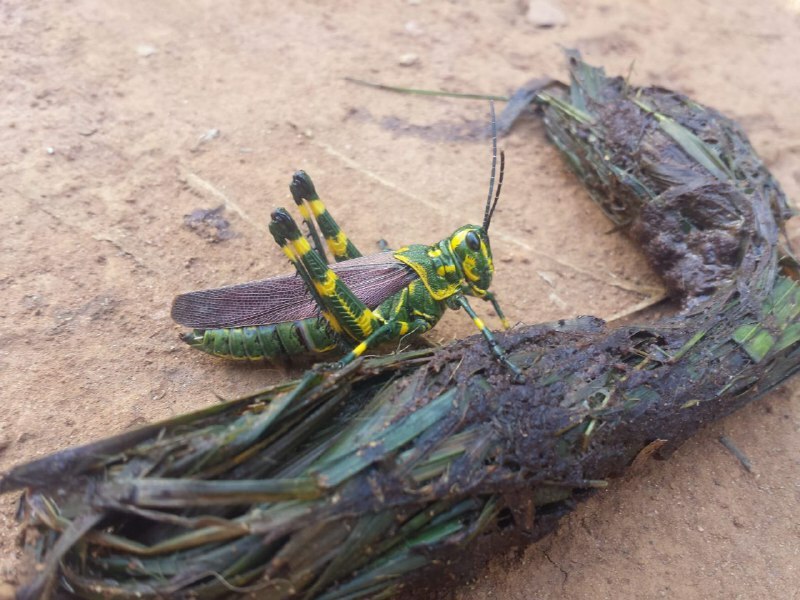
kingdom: Animalia
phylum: Arthropoda
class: Insecta
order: Orthoptera
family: Romaleidae
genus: Chromacris
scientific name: Chromacris speciosa
